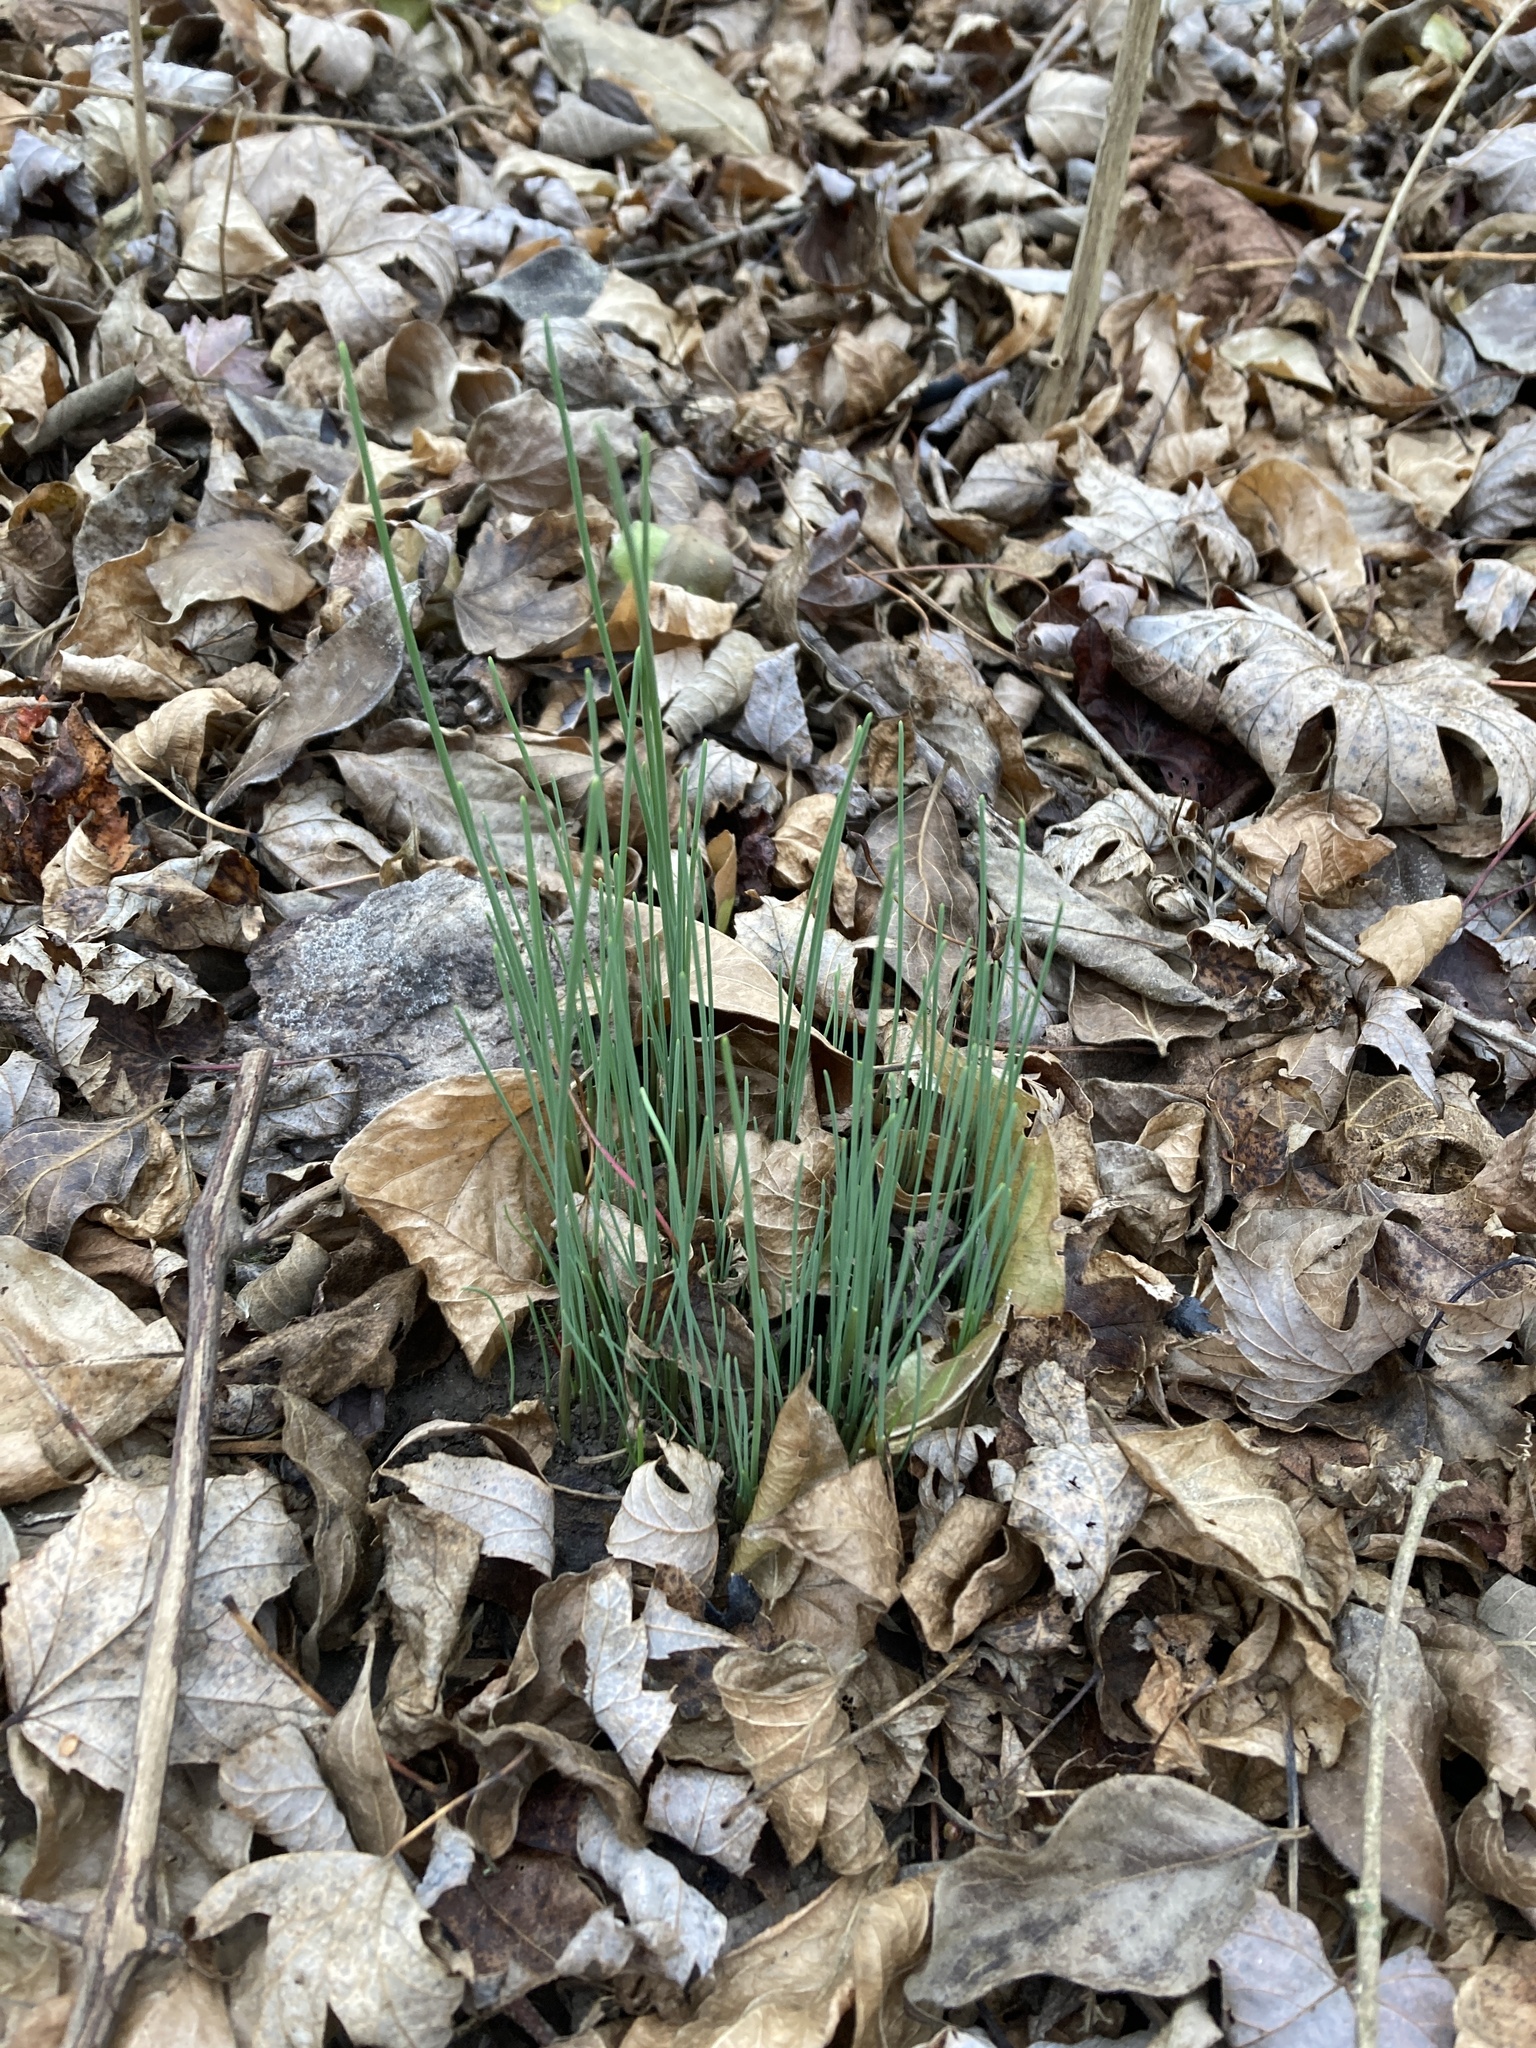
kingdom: Plantae
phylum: Tracheophyta
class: Liliopsida
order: Asparagales
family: Amaryllidaceae
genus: Allium
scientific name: Allium vineale
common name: Crow garlic
